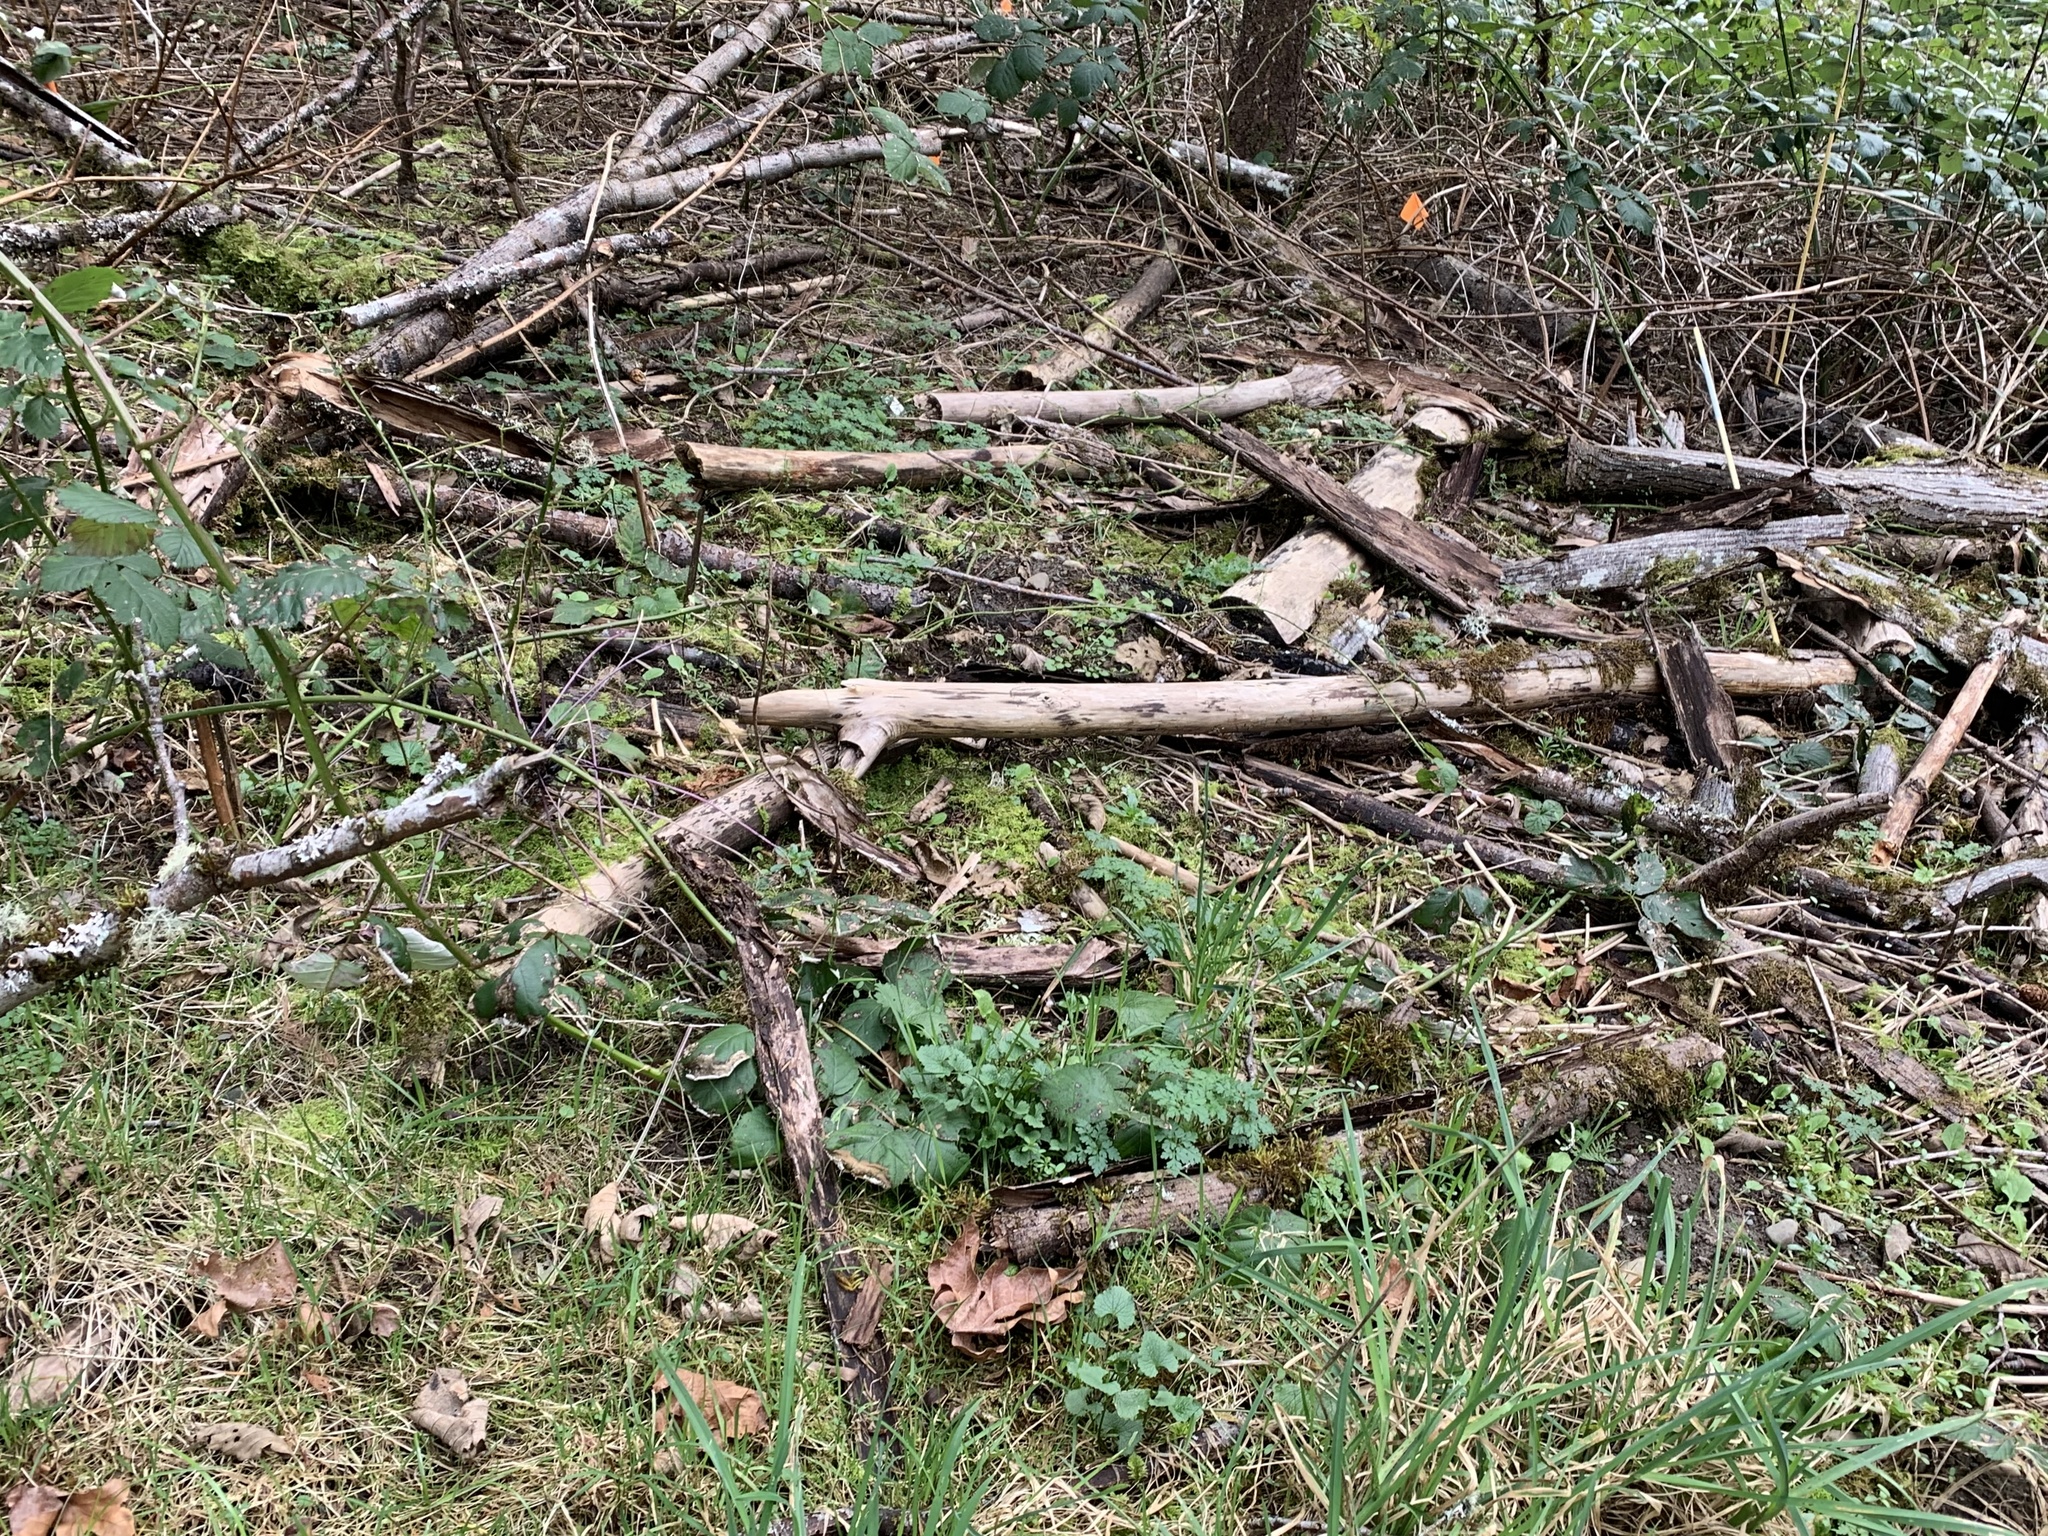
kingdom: Plantae
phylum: Tracheophyta
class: Magnoliopsida
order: Brassicales
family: Brassicaceae
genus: Alliaria
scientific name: Alliaria petiolata
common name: Garlic mustard
